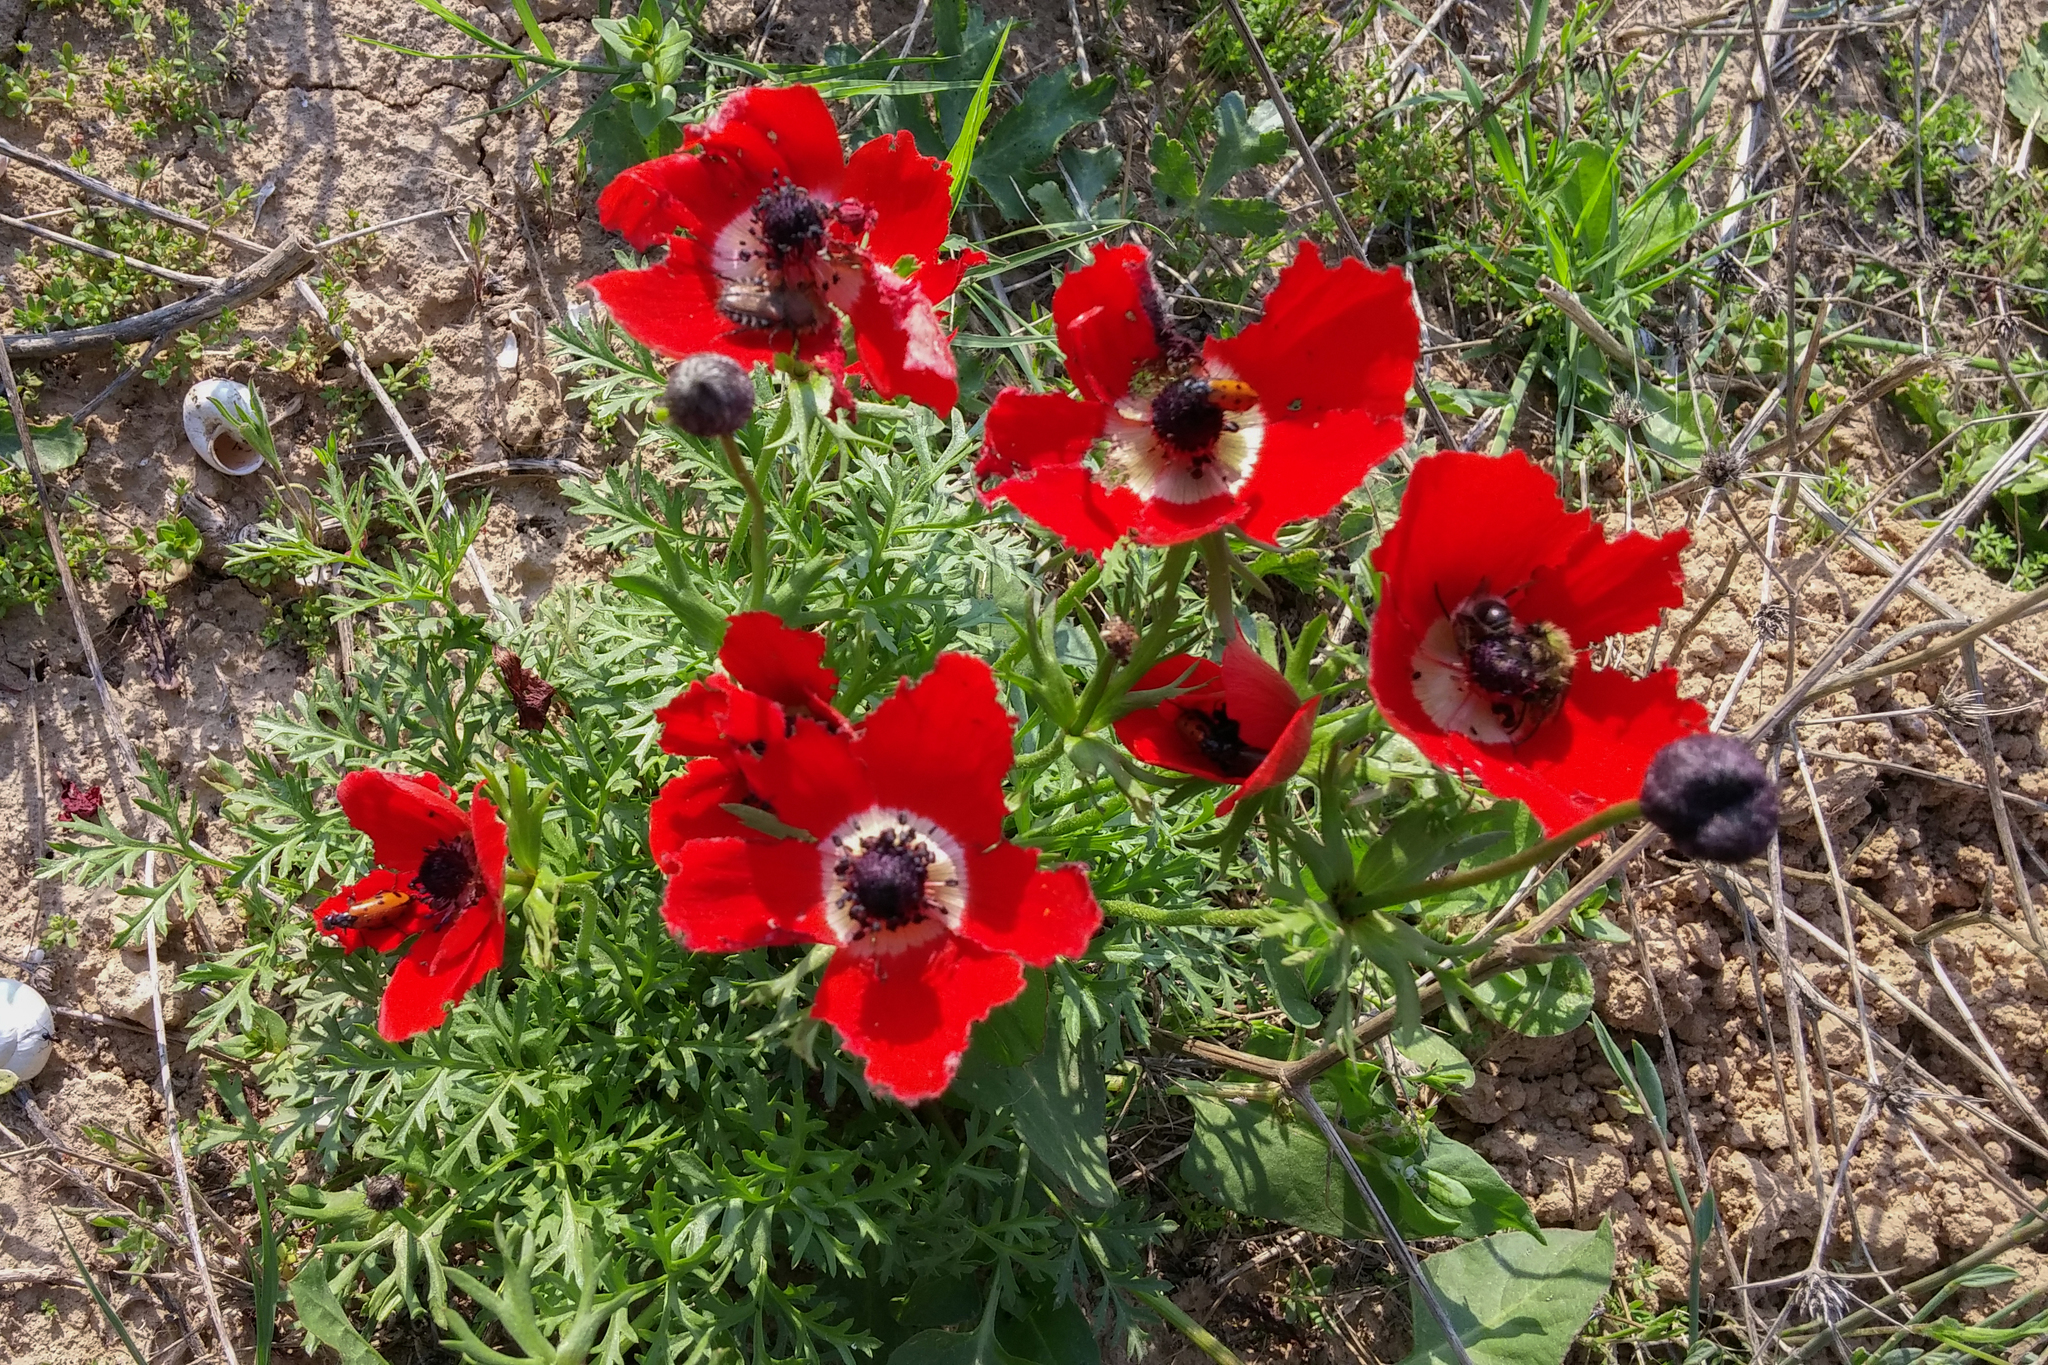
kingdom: Plantae
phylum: Tracheophyta
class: Magnoliopsida
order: Ranunculales
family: Ranunculaceae
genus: Anemone
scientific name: Anemone coronaria
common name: Poppy anemone
